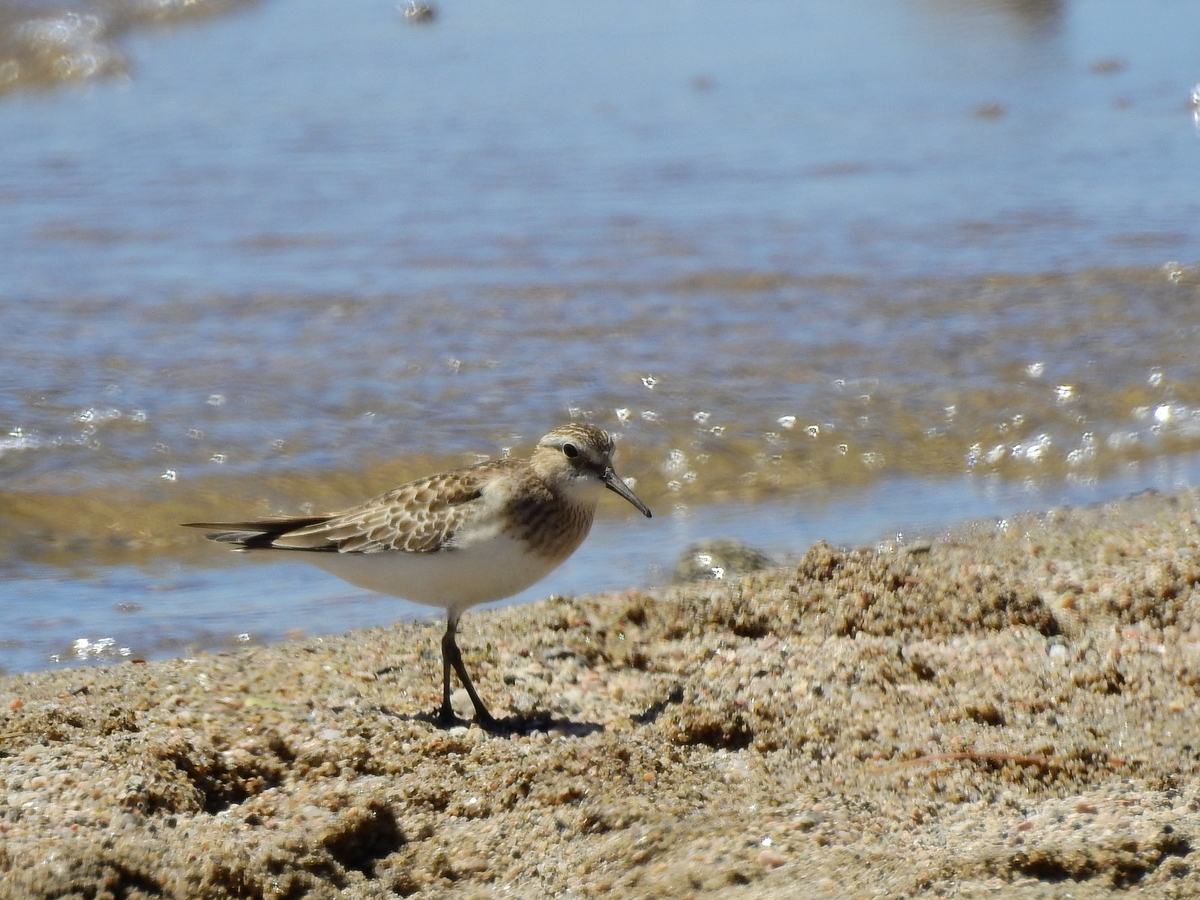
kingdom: Animalia
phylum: Chordata
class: Aves
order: Charadriiformes
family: Scolopacidae
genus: Calidris
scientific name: Calidris bairdii
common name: Baird's sandpiper
